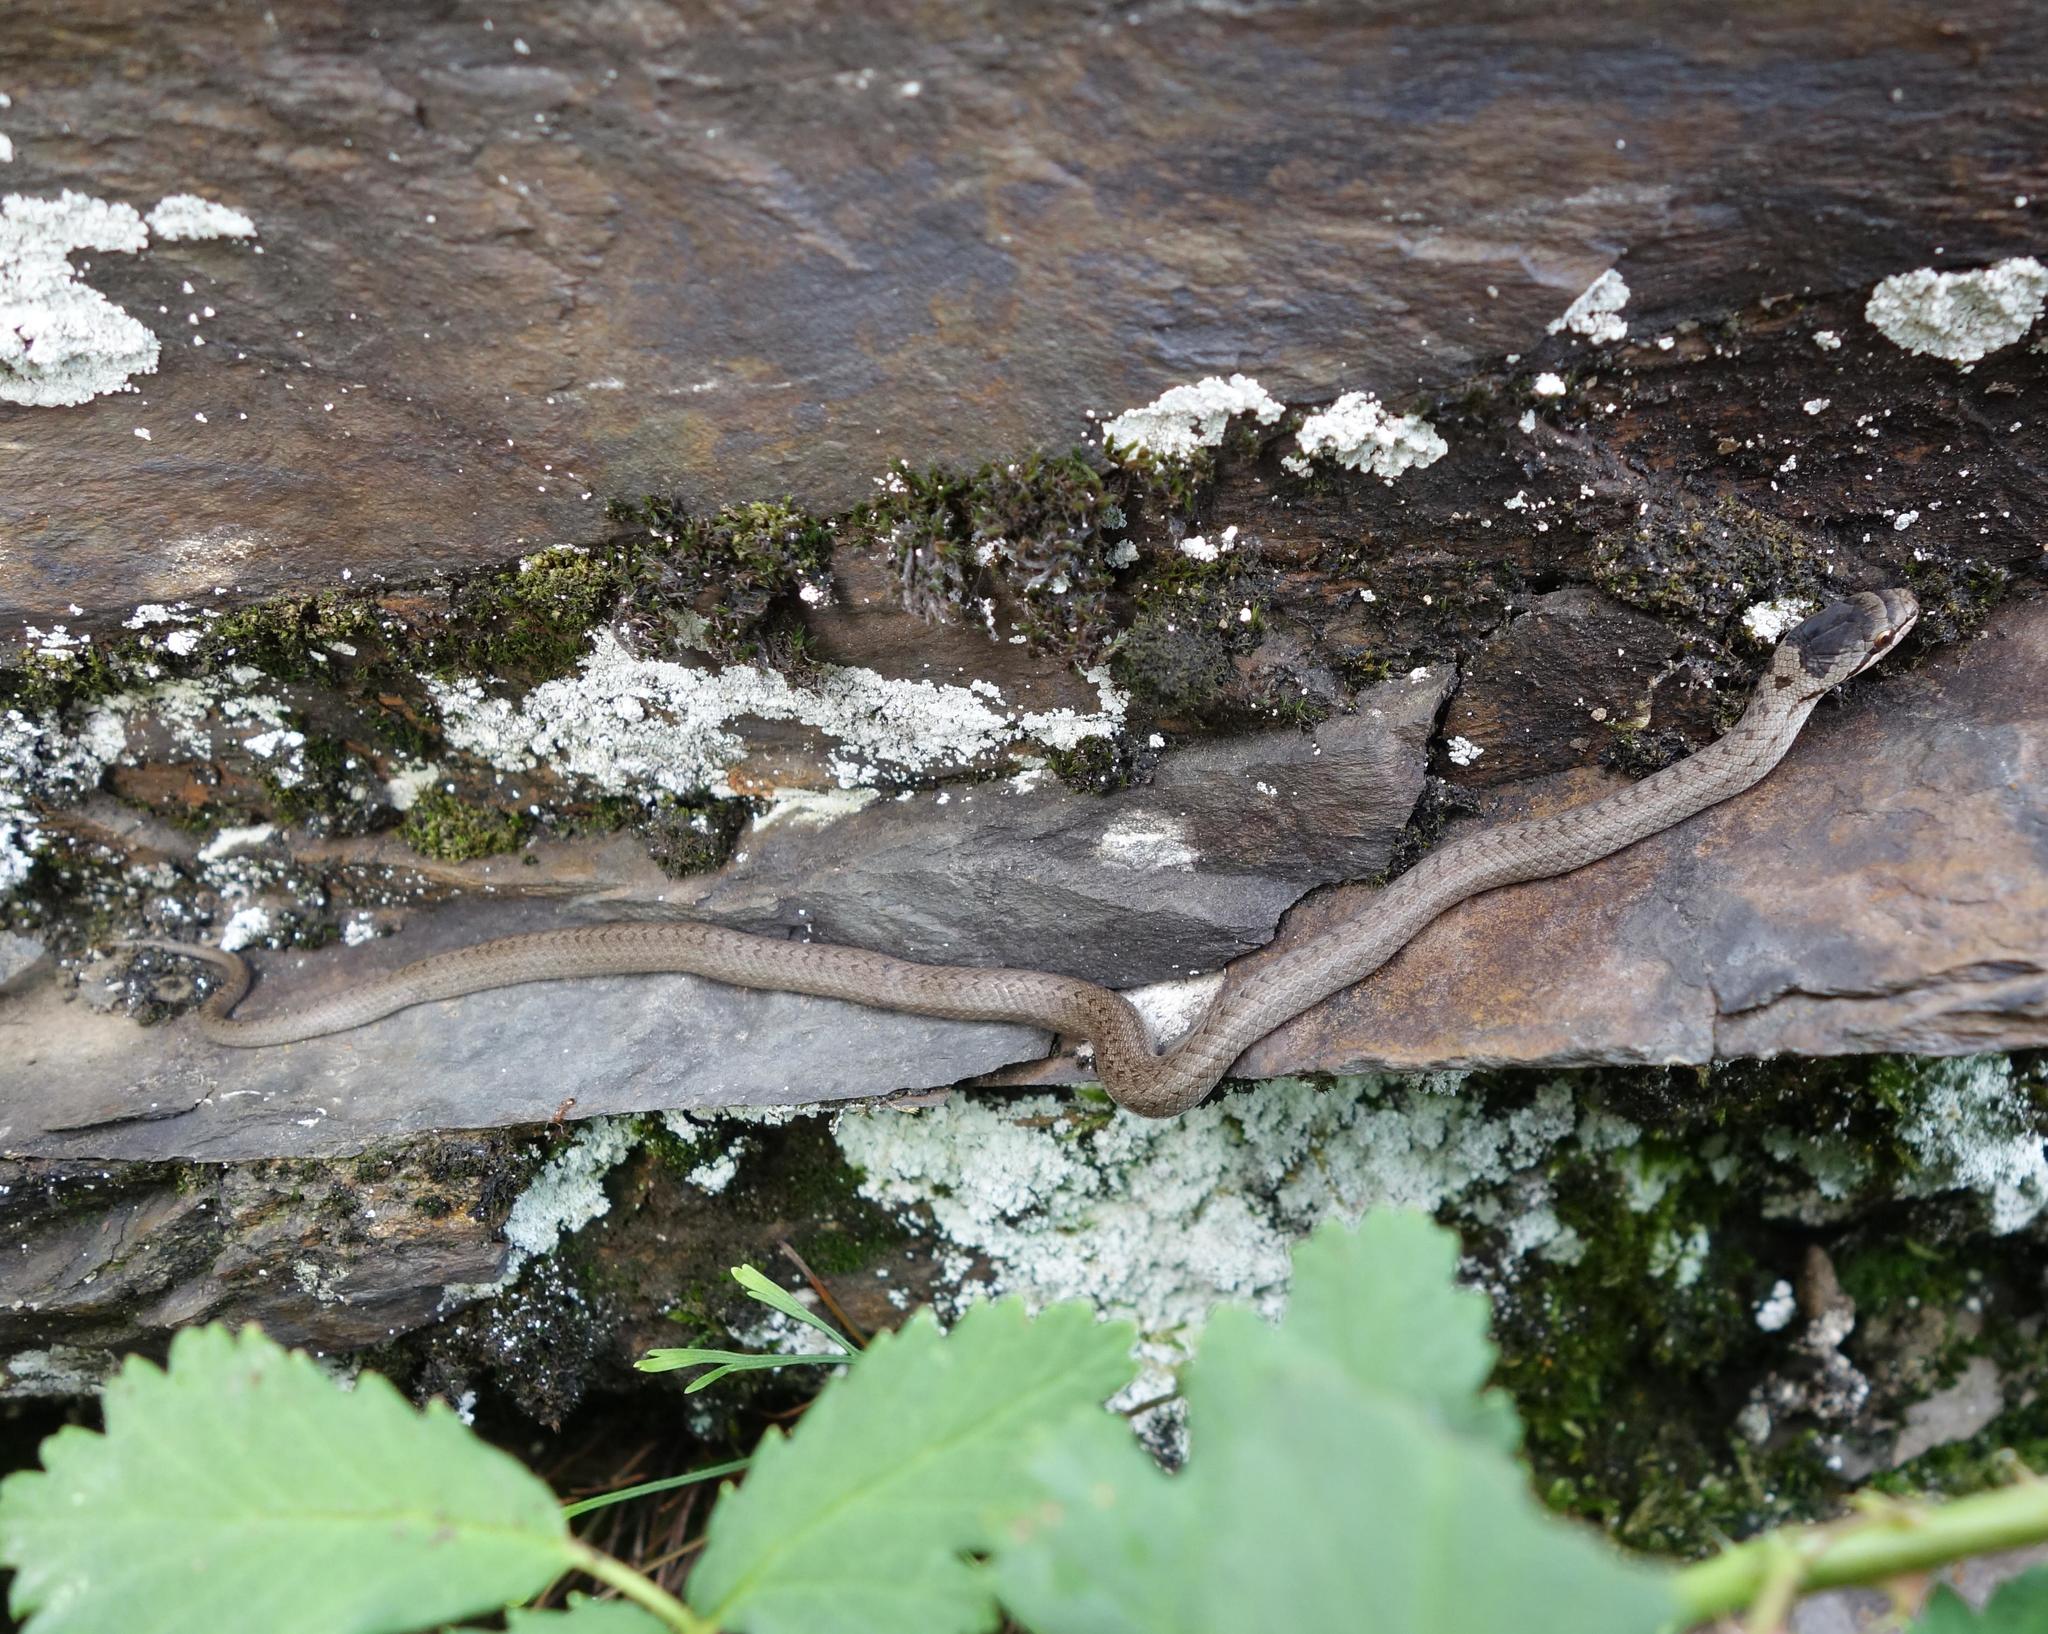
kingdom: Animalia
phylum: Chordata
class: Squamata
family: Colubridae
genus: Coronella
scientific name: Coronella austriaca
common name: Smooth snake
